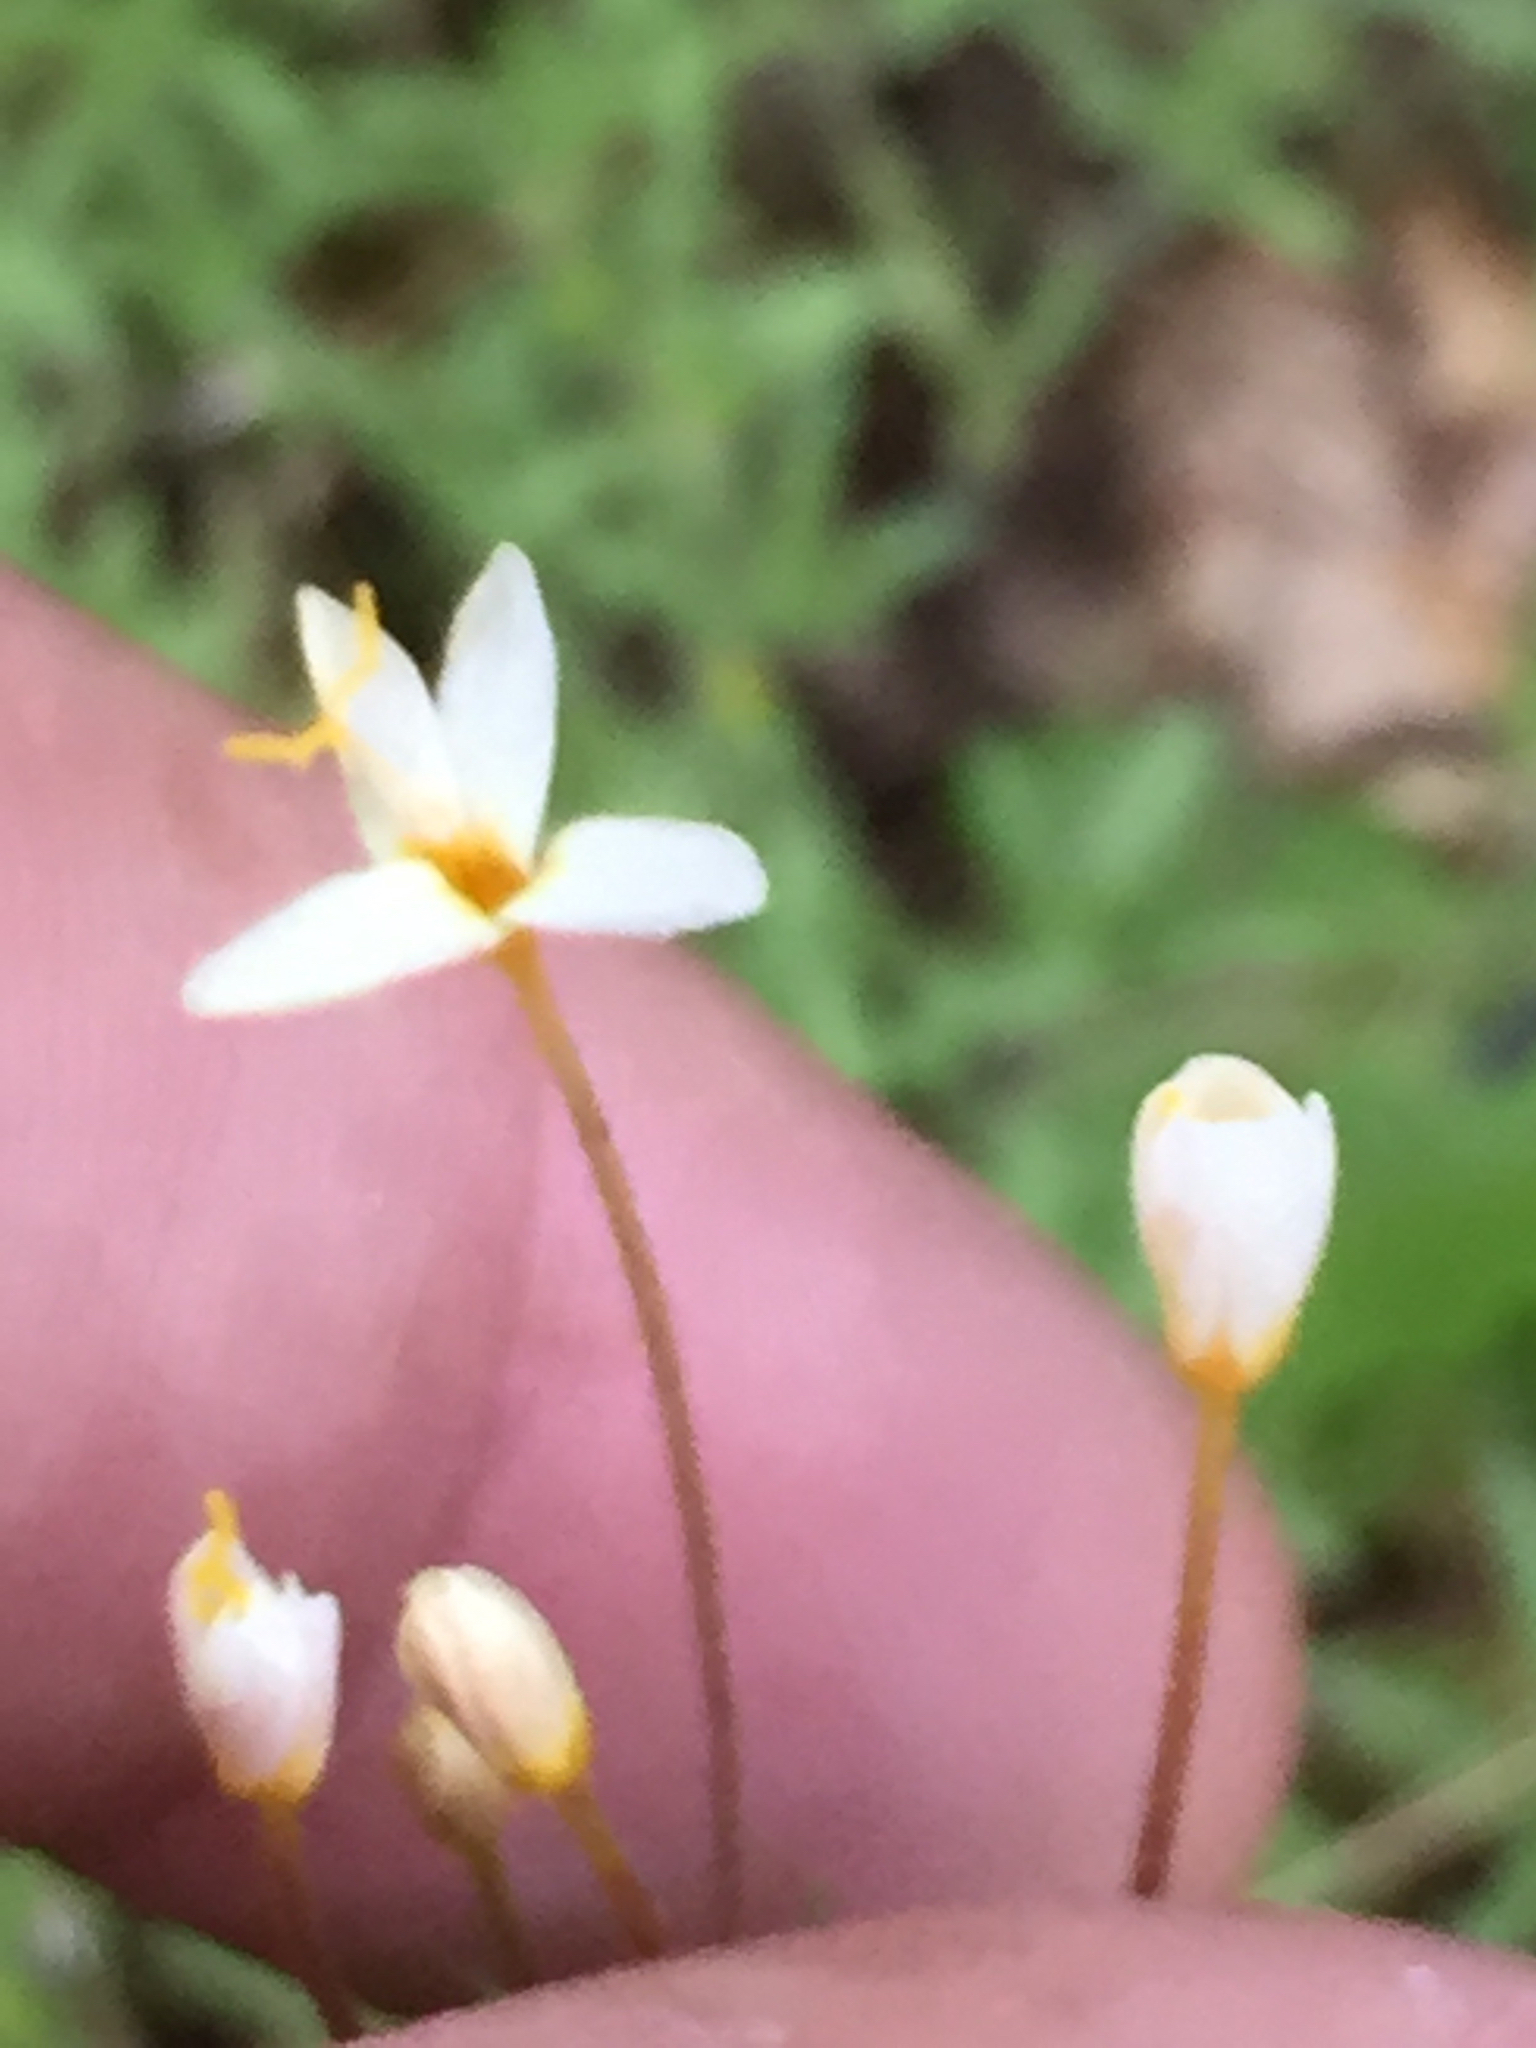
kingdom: Plantae
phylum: Tracheophyta
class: Magnoliopsida
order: Ericales
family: Polemoniaceae
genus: Leptosiphon
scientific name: Leptosiphon parviflorus
